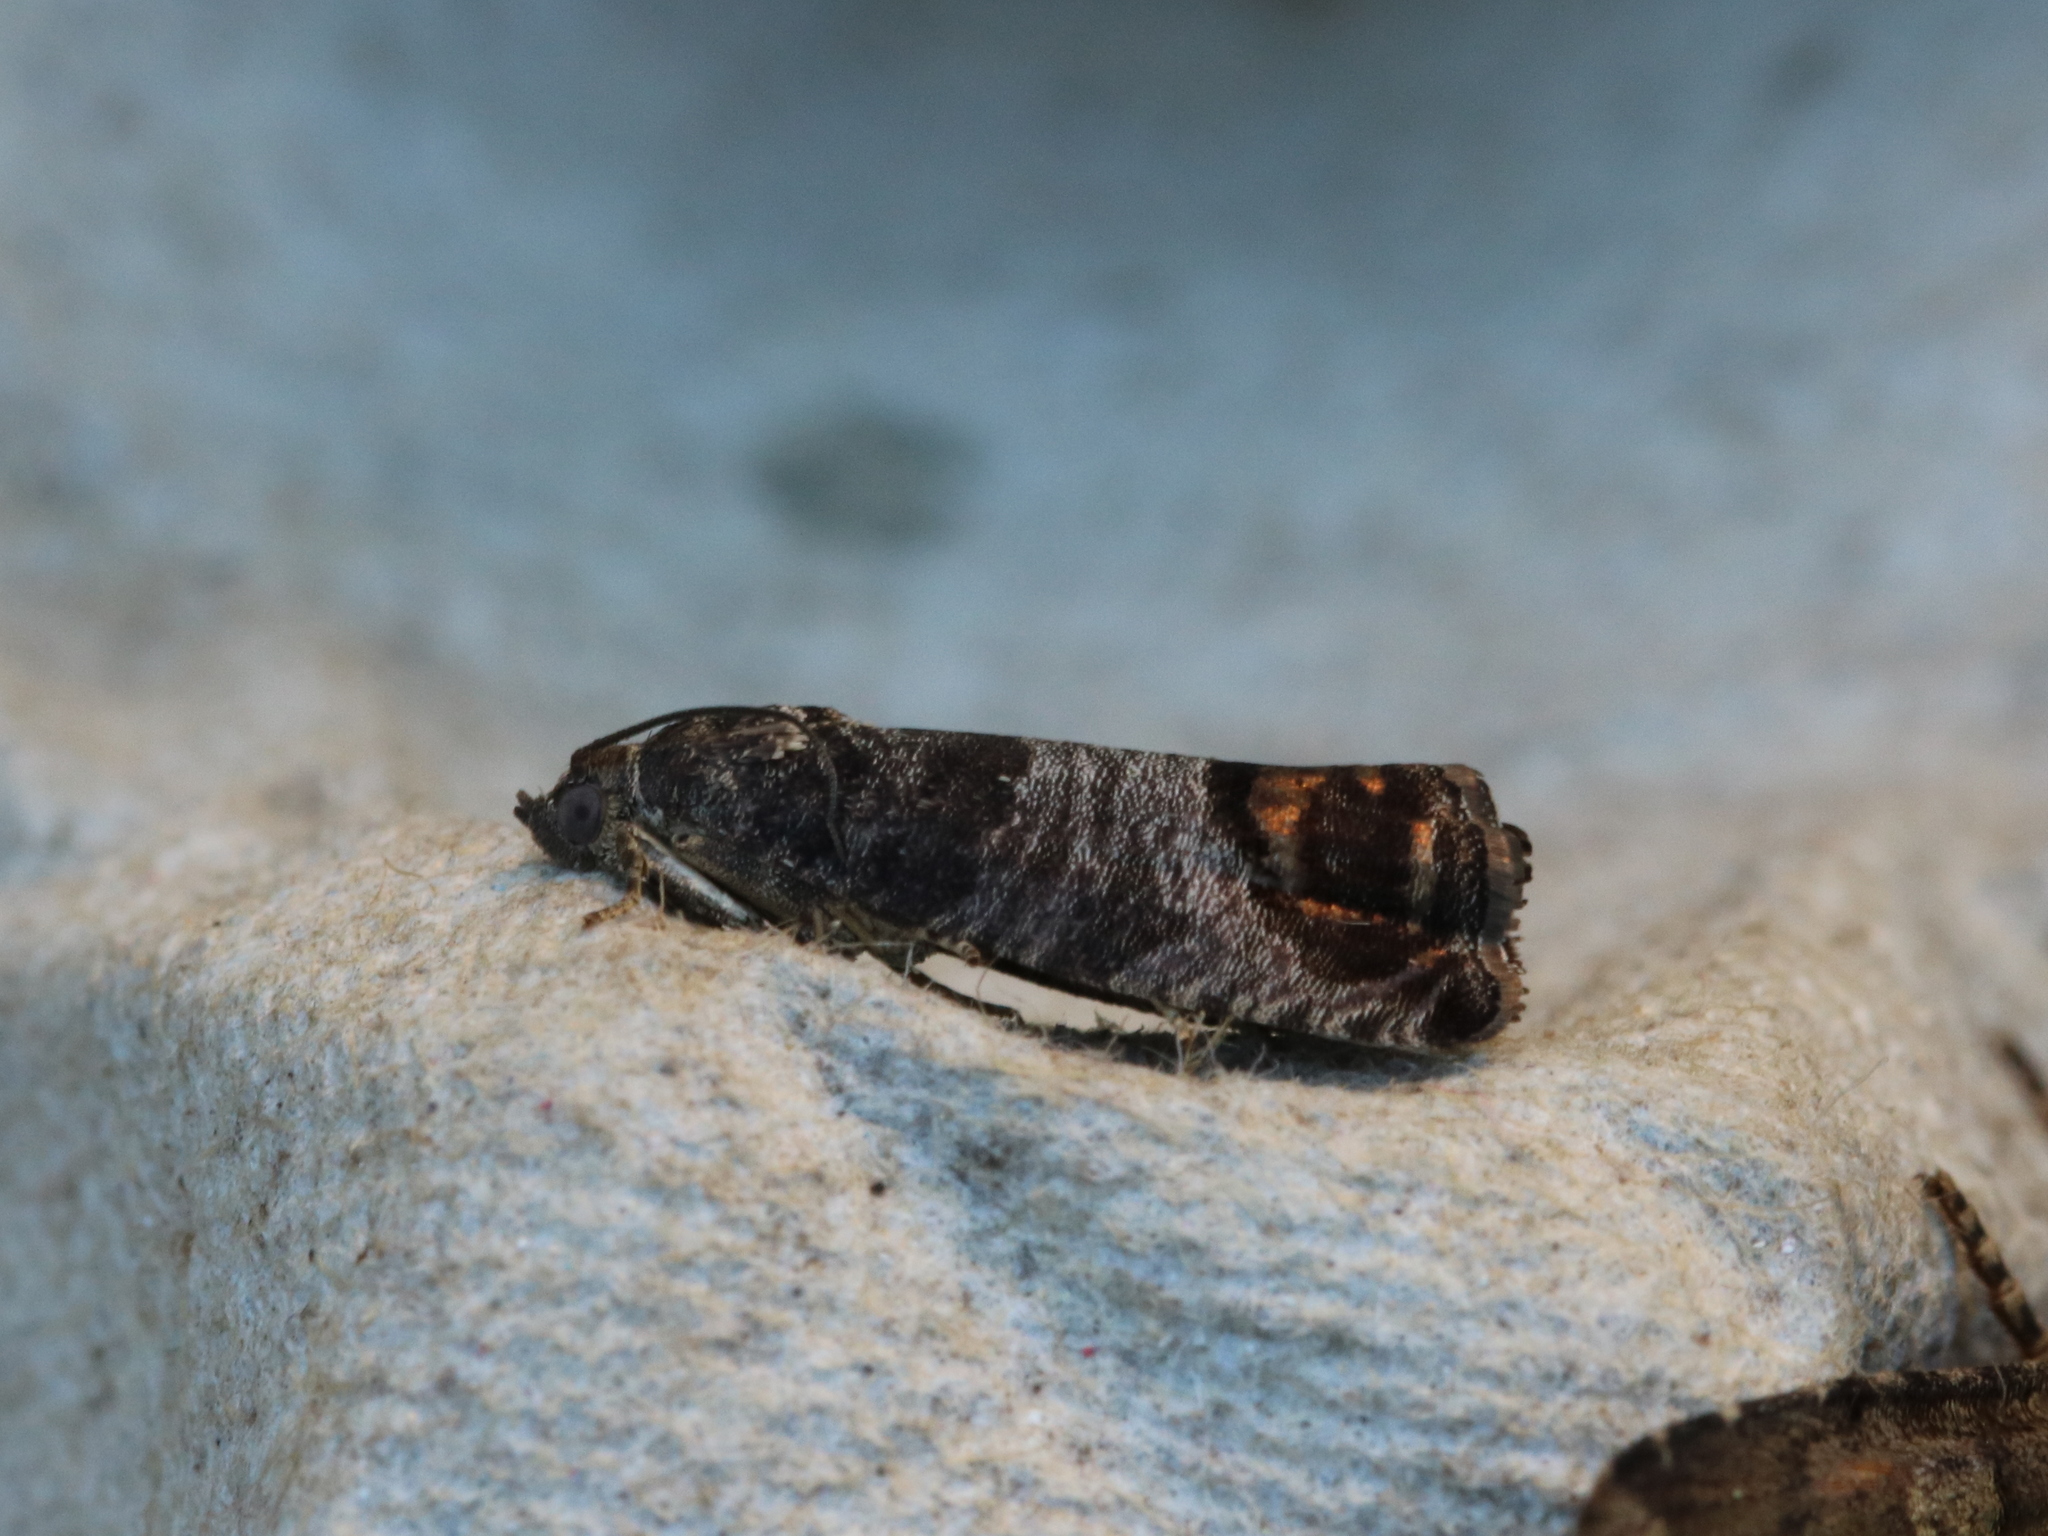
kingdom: Animalia
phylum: Arthropoda
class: Insecta
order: Lepidoptera
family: Tortricidae
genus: Cydia
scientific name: Cydia pomonella
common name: Codling moth
